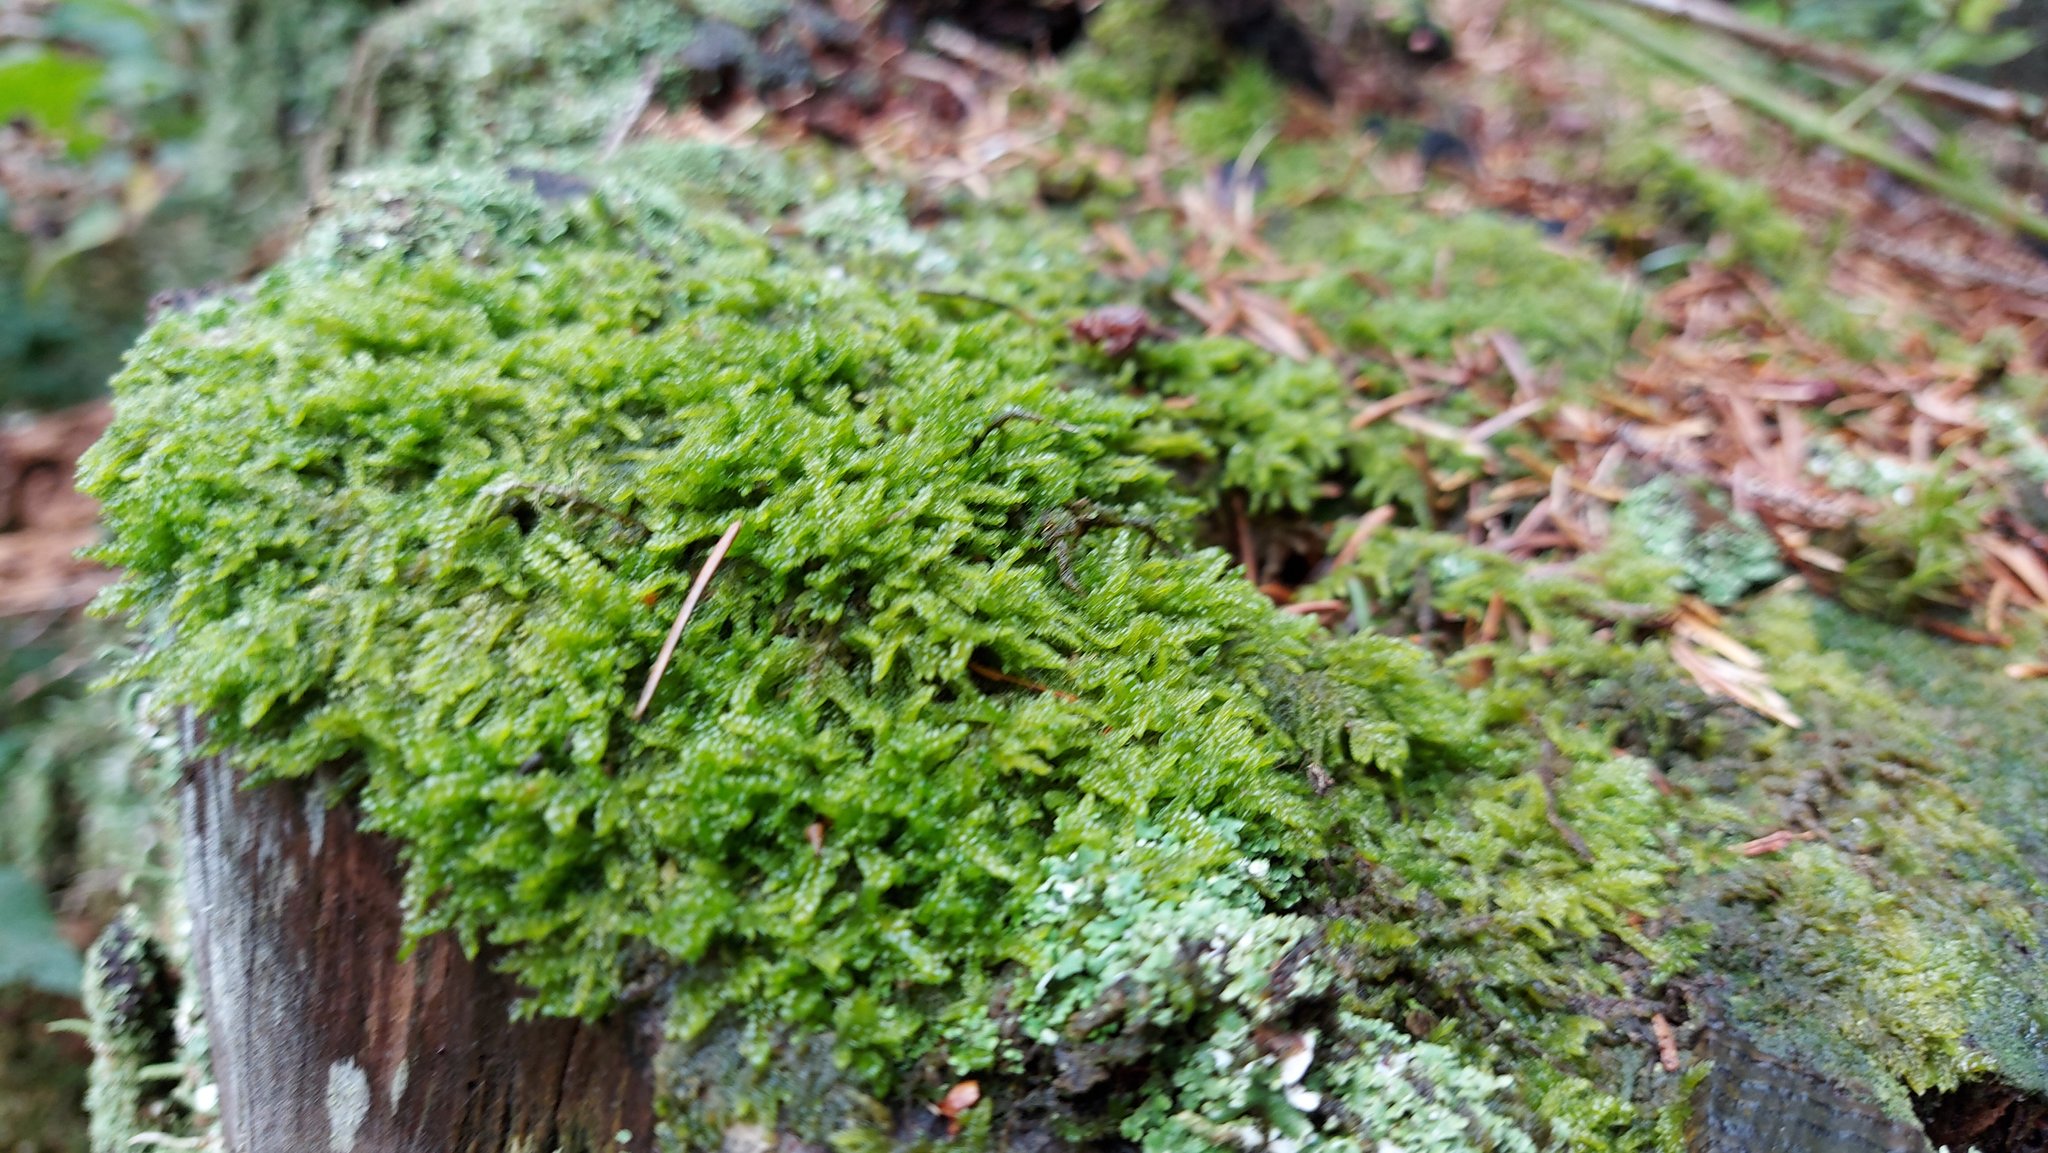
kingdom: Plantae
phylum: Bryophyta
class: Bryopsida
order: Hypnales
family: Hypnaceae
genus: Hypnum
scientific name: Hypnum cupressiforme
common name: Cypress-leaved plait-moss
